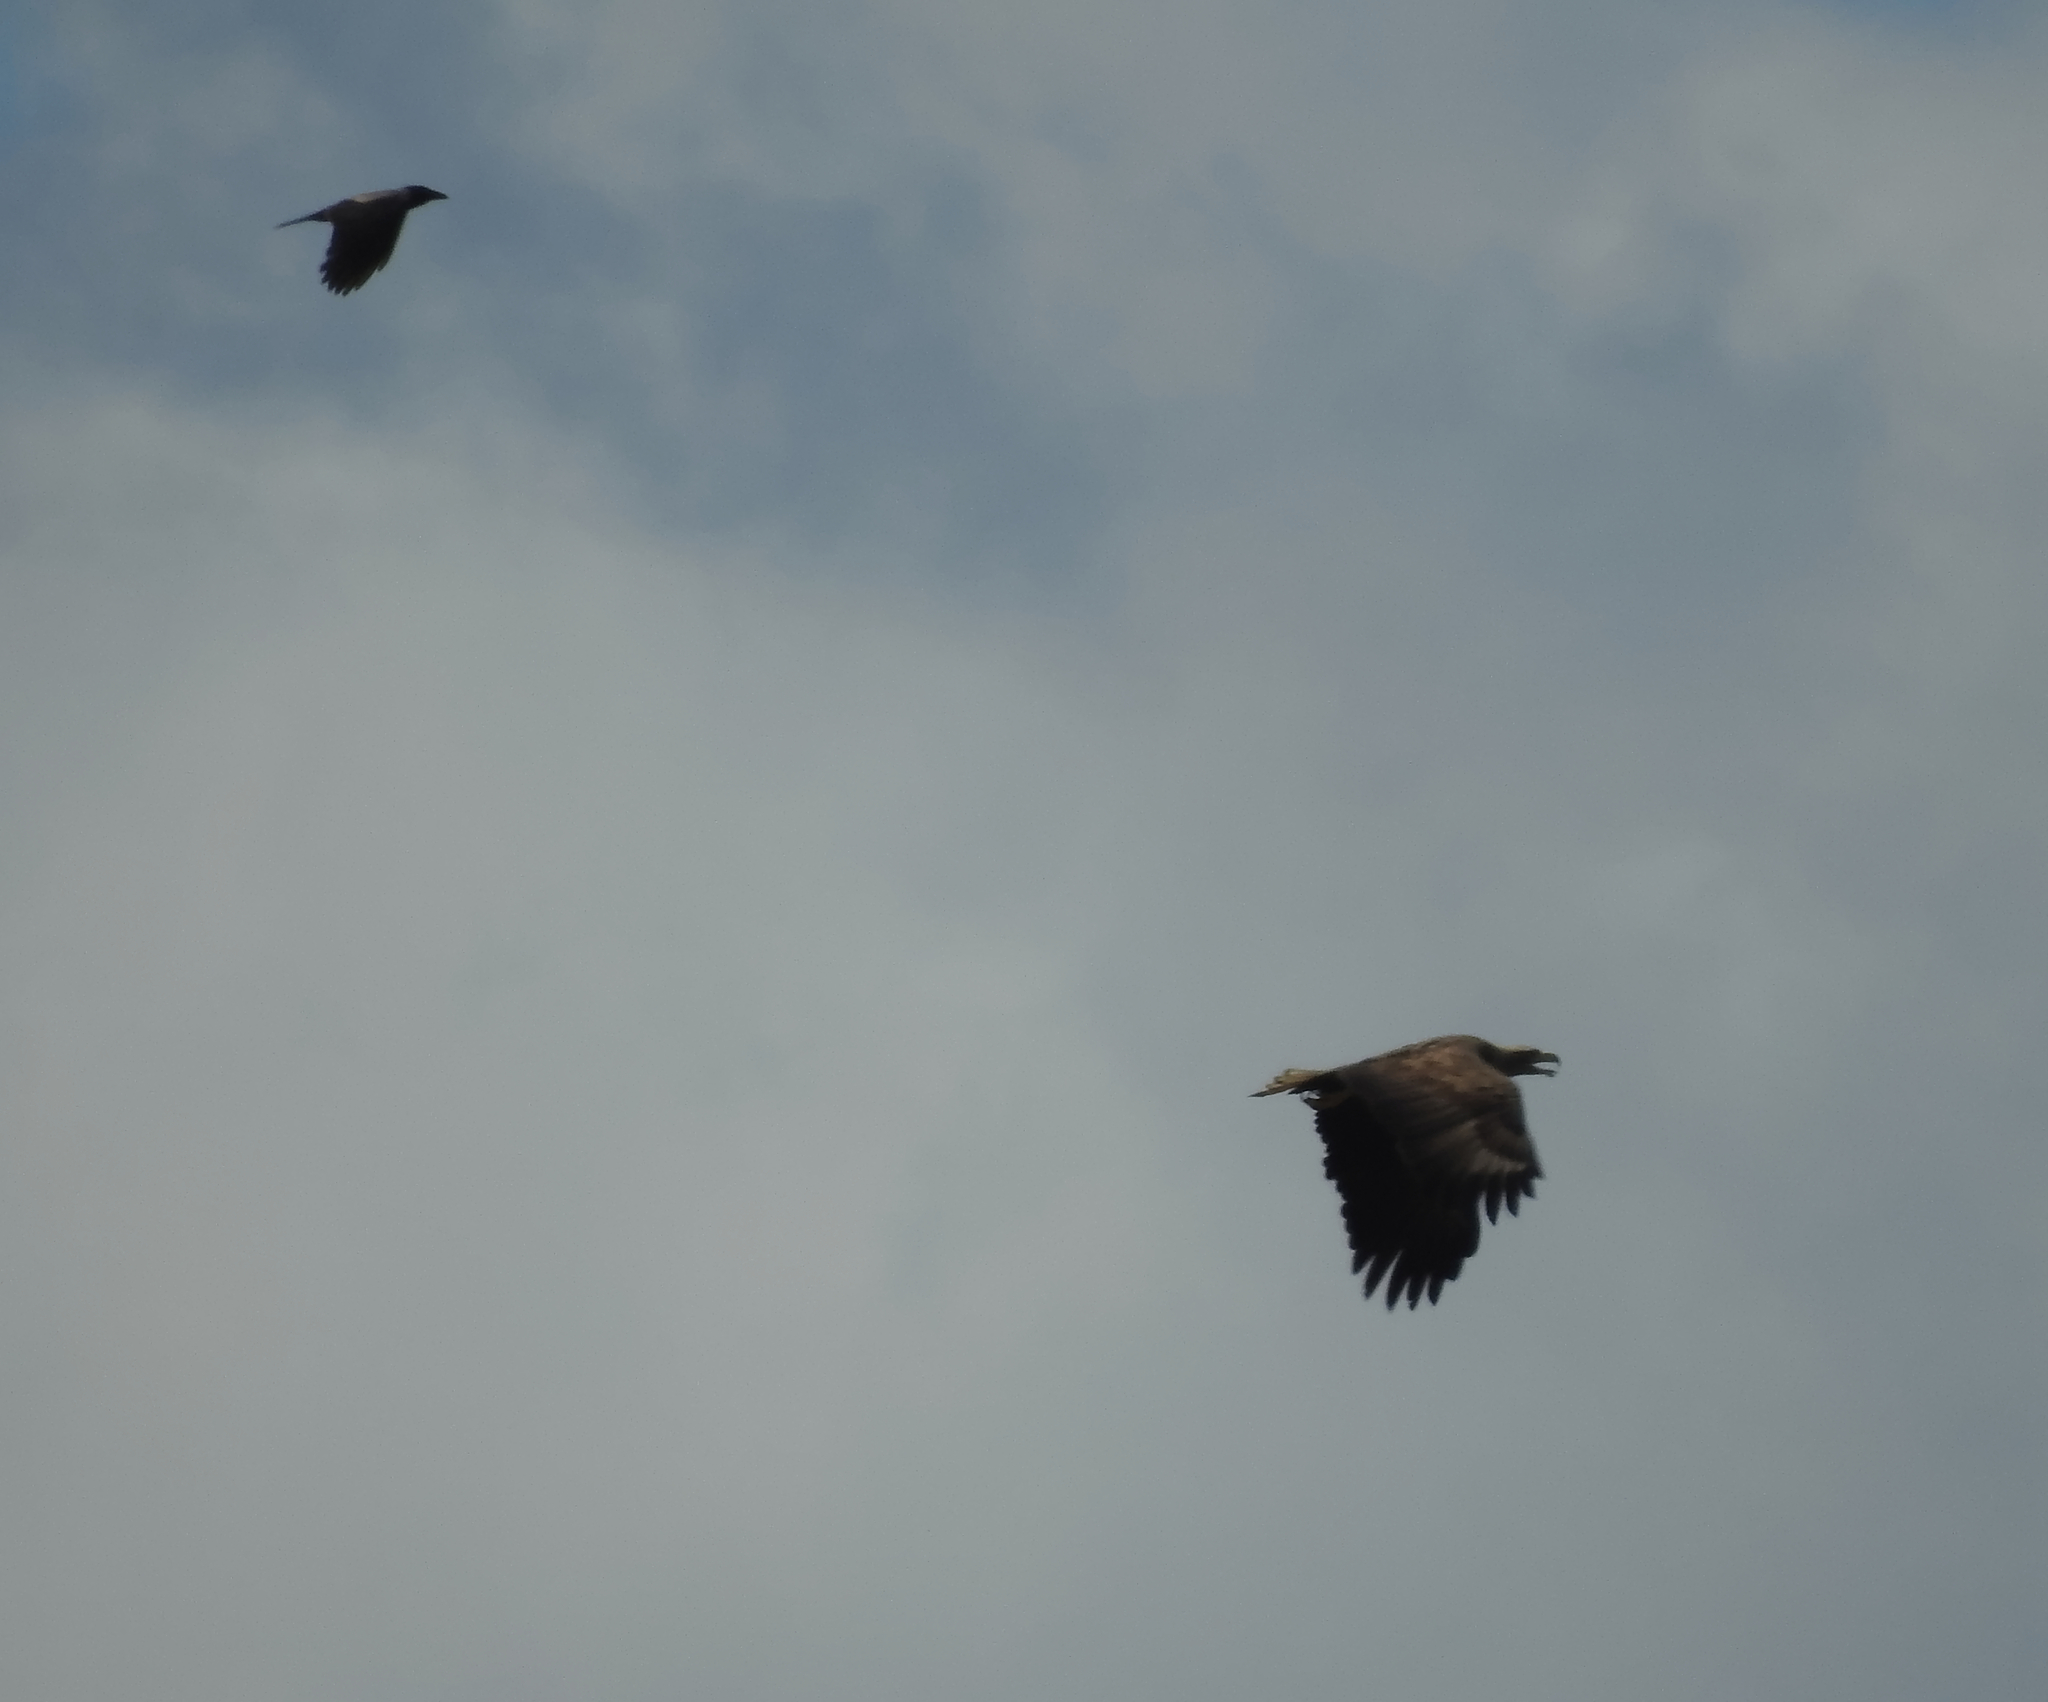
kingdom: Animalia
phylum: Chordata
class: Aves
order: Passeriformes
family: Corvidae
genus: Corvus
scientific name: Corvus cornix
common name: Hooded crow
